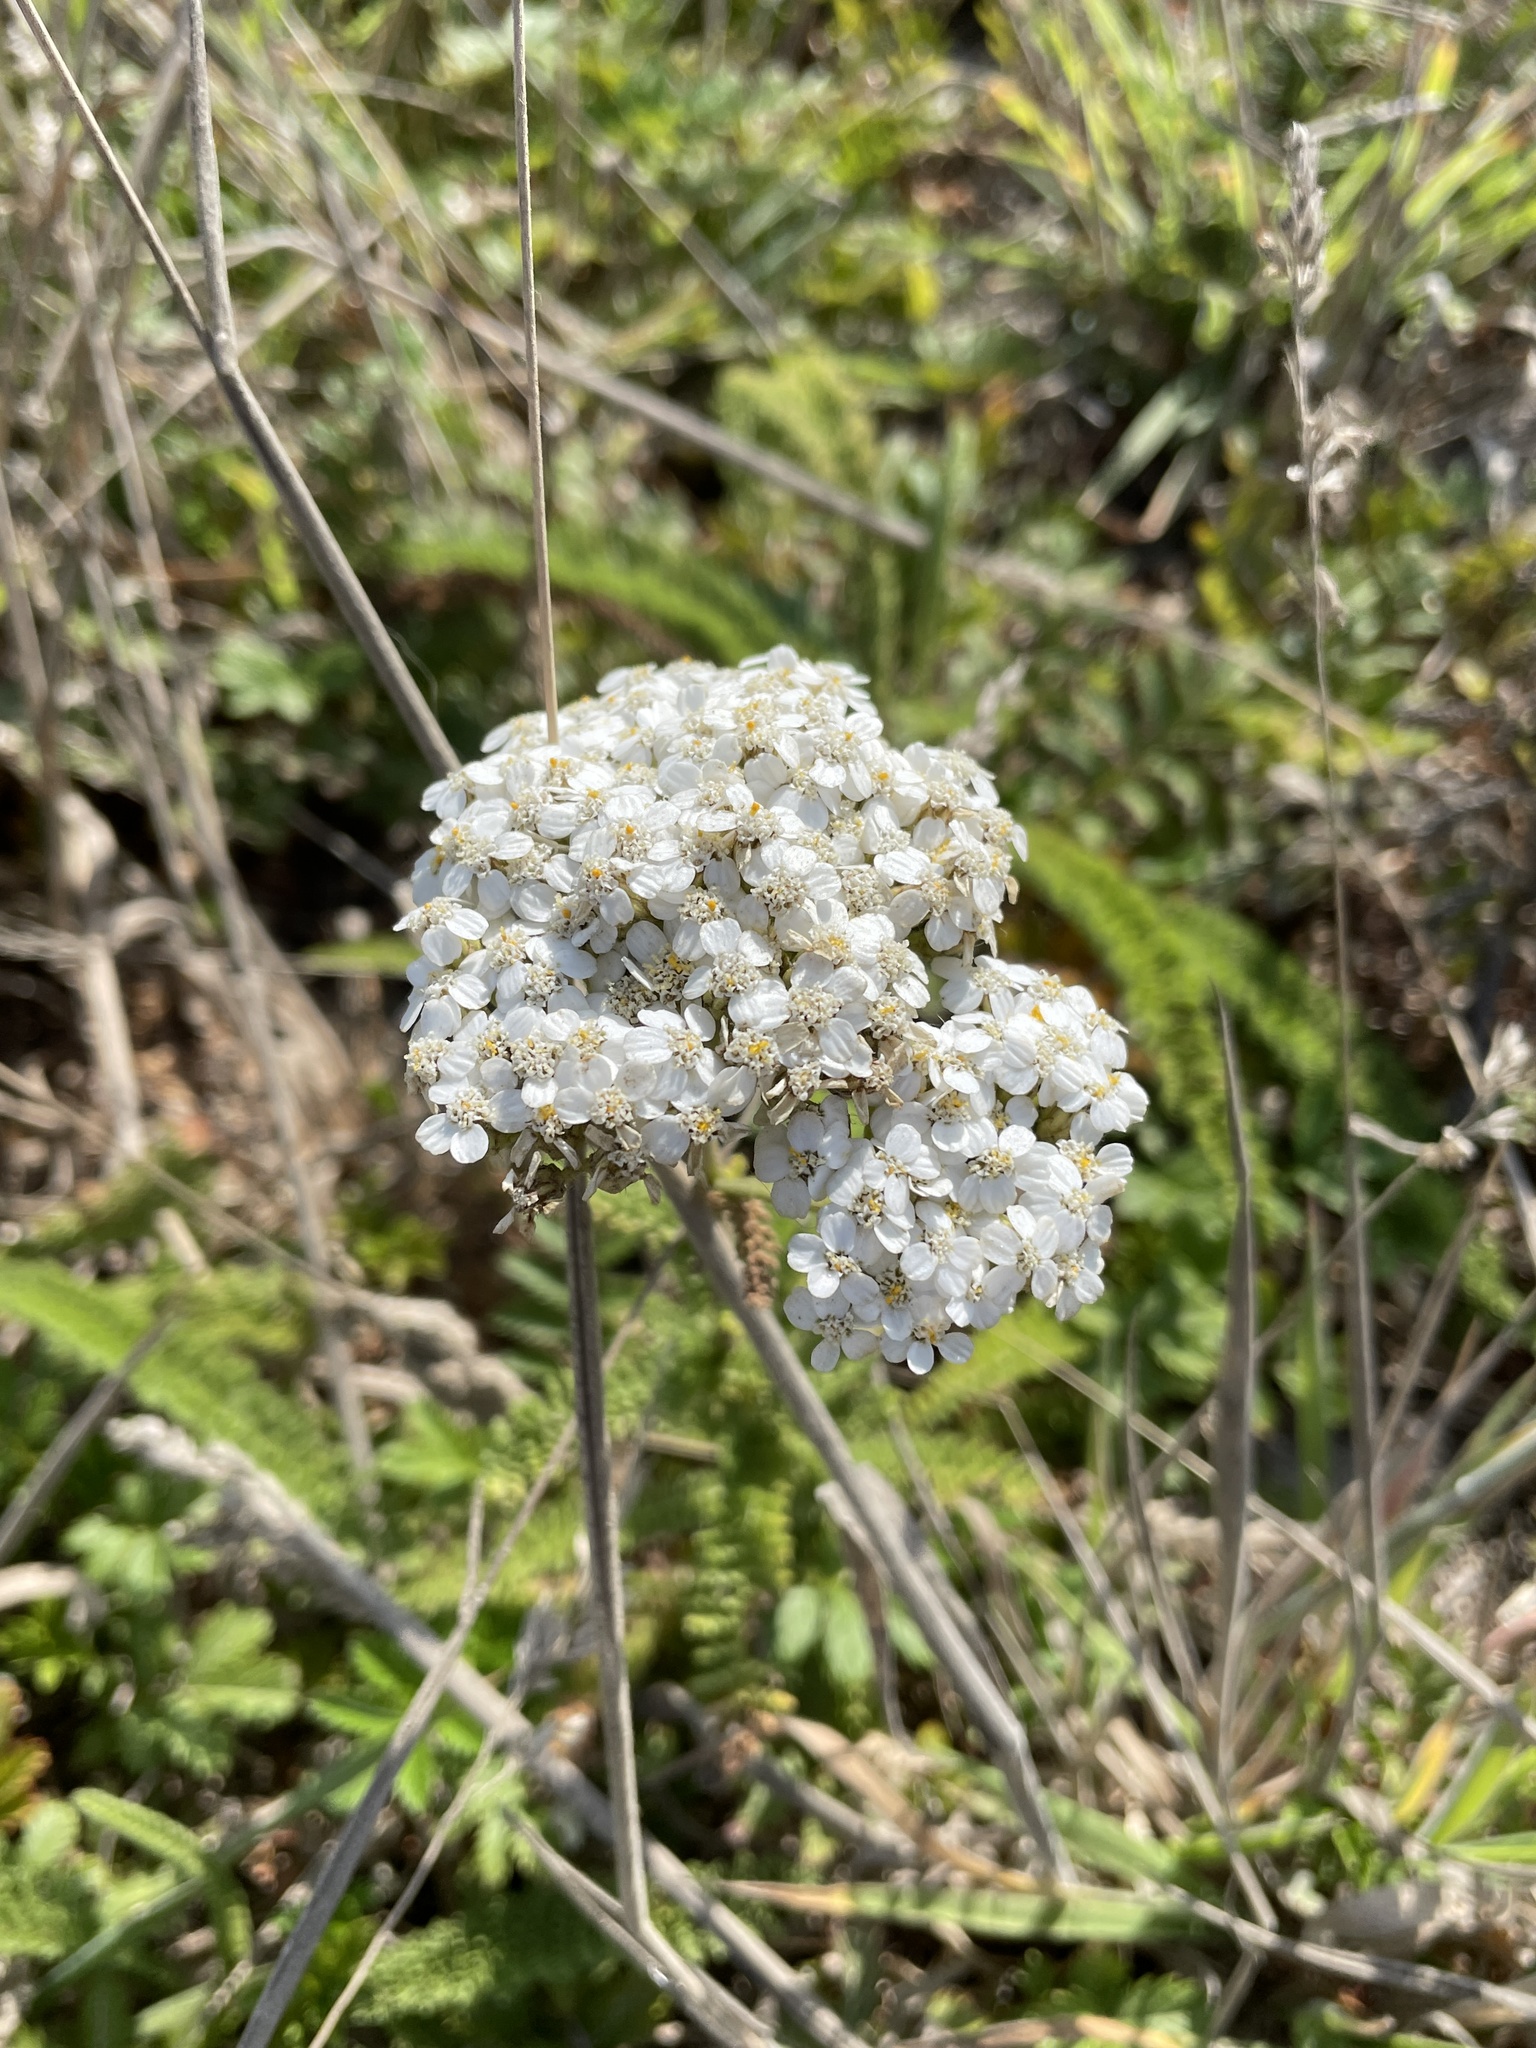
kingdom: Plantae
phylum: Tracheophyta
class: Magnoliopsida
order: Asterales
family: Asteraceae
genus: Achillea
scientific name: Achillea millefolium
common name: Yarrow
